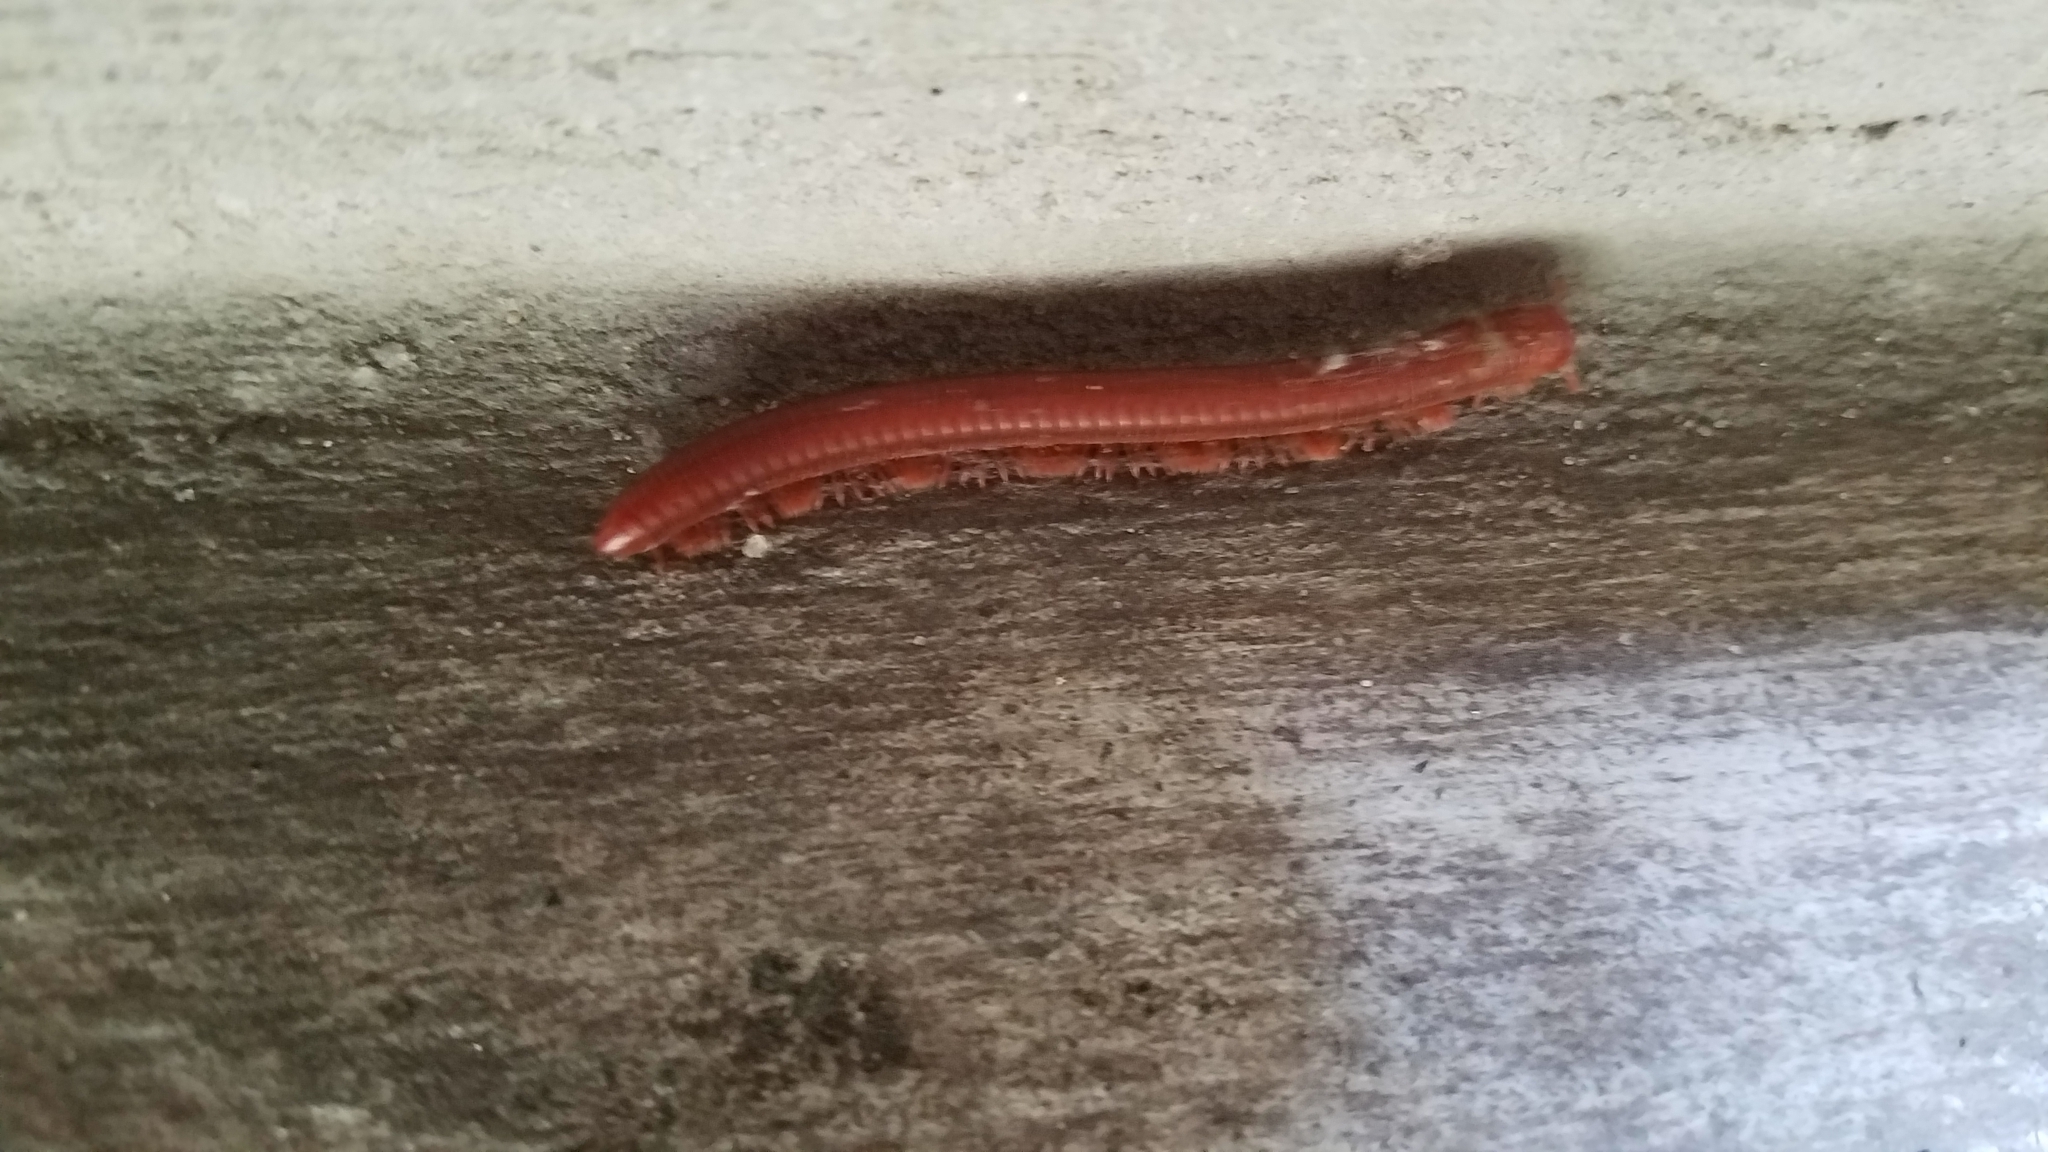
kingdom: Animalia
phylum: Arthropoda
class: Diplopoda
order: Spirobolida
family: Pachybolidae
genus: Trigoniulus
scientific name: Trigoniulus corallinus
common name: Millipede
